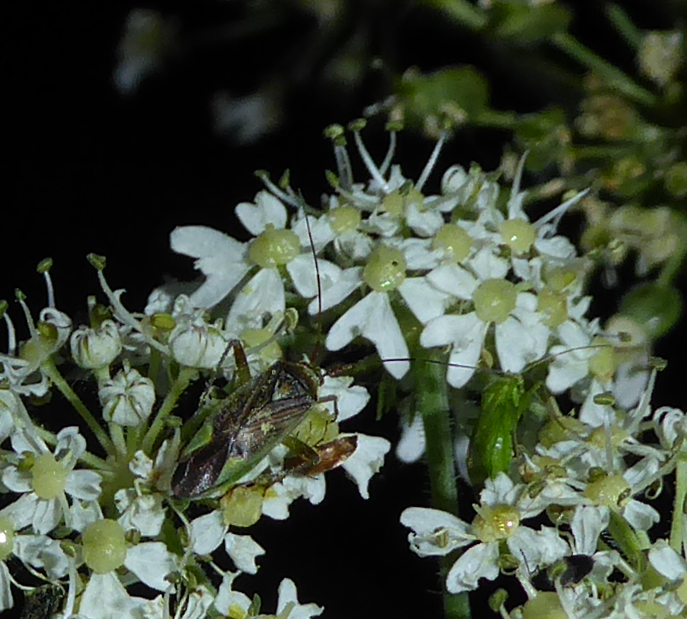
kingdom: Animalia
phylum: Arthropoda
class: Insecta
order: Hemiptera
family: Miridae
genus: Closterotomus
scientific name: Closterotomus trivialis
